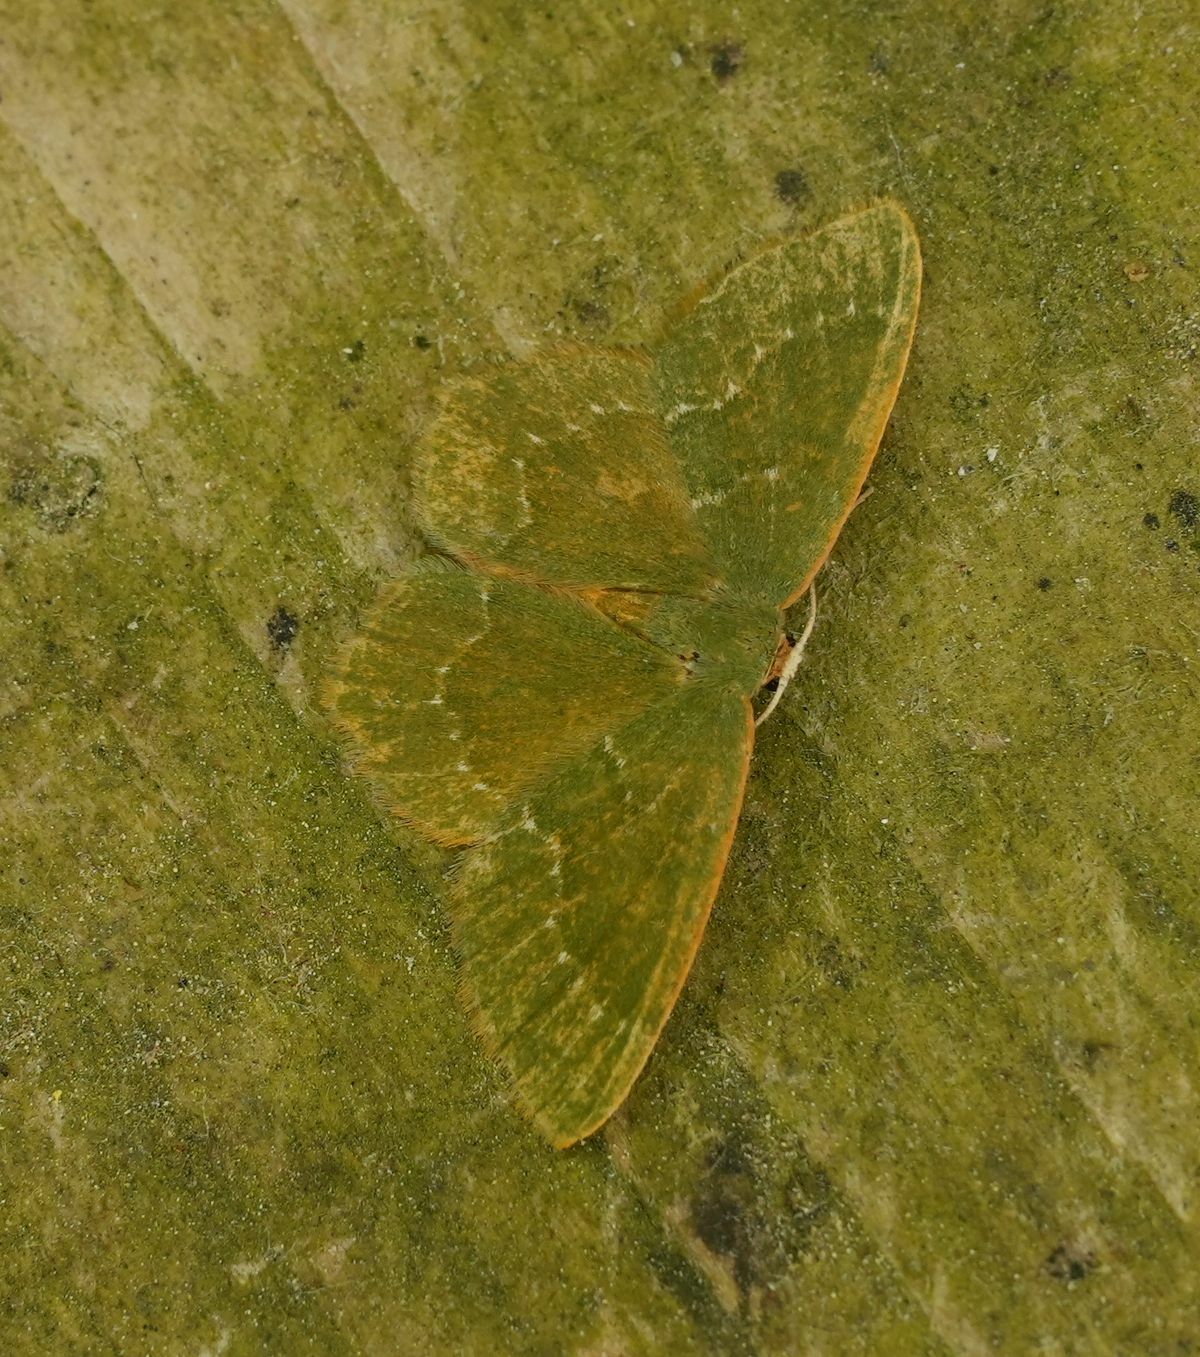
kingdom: Animalia
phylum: Arthropoda
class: Insecta
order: Lepidoptera
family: Geometridae
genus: Thalera
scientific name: Thalera pistasciaria
